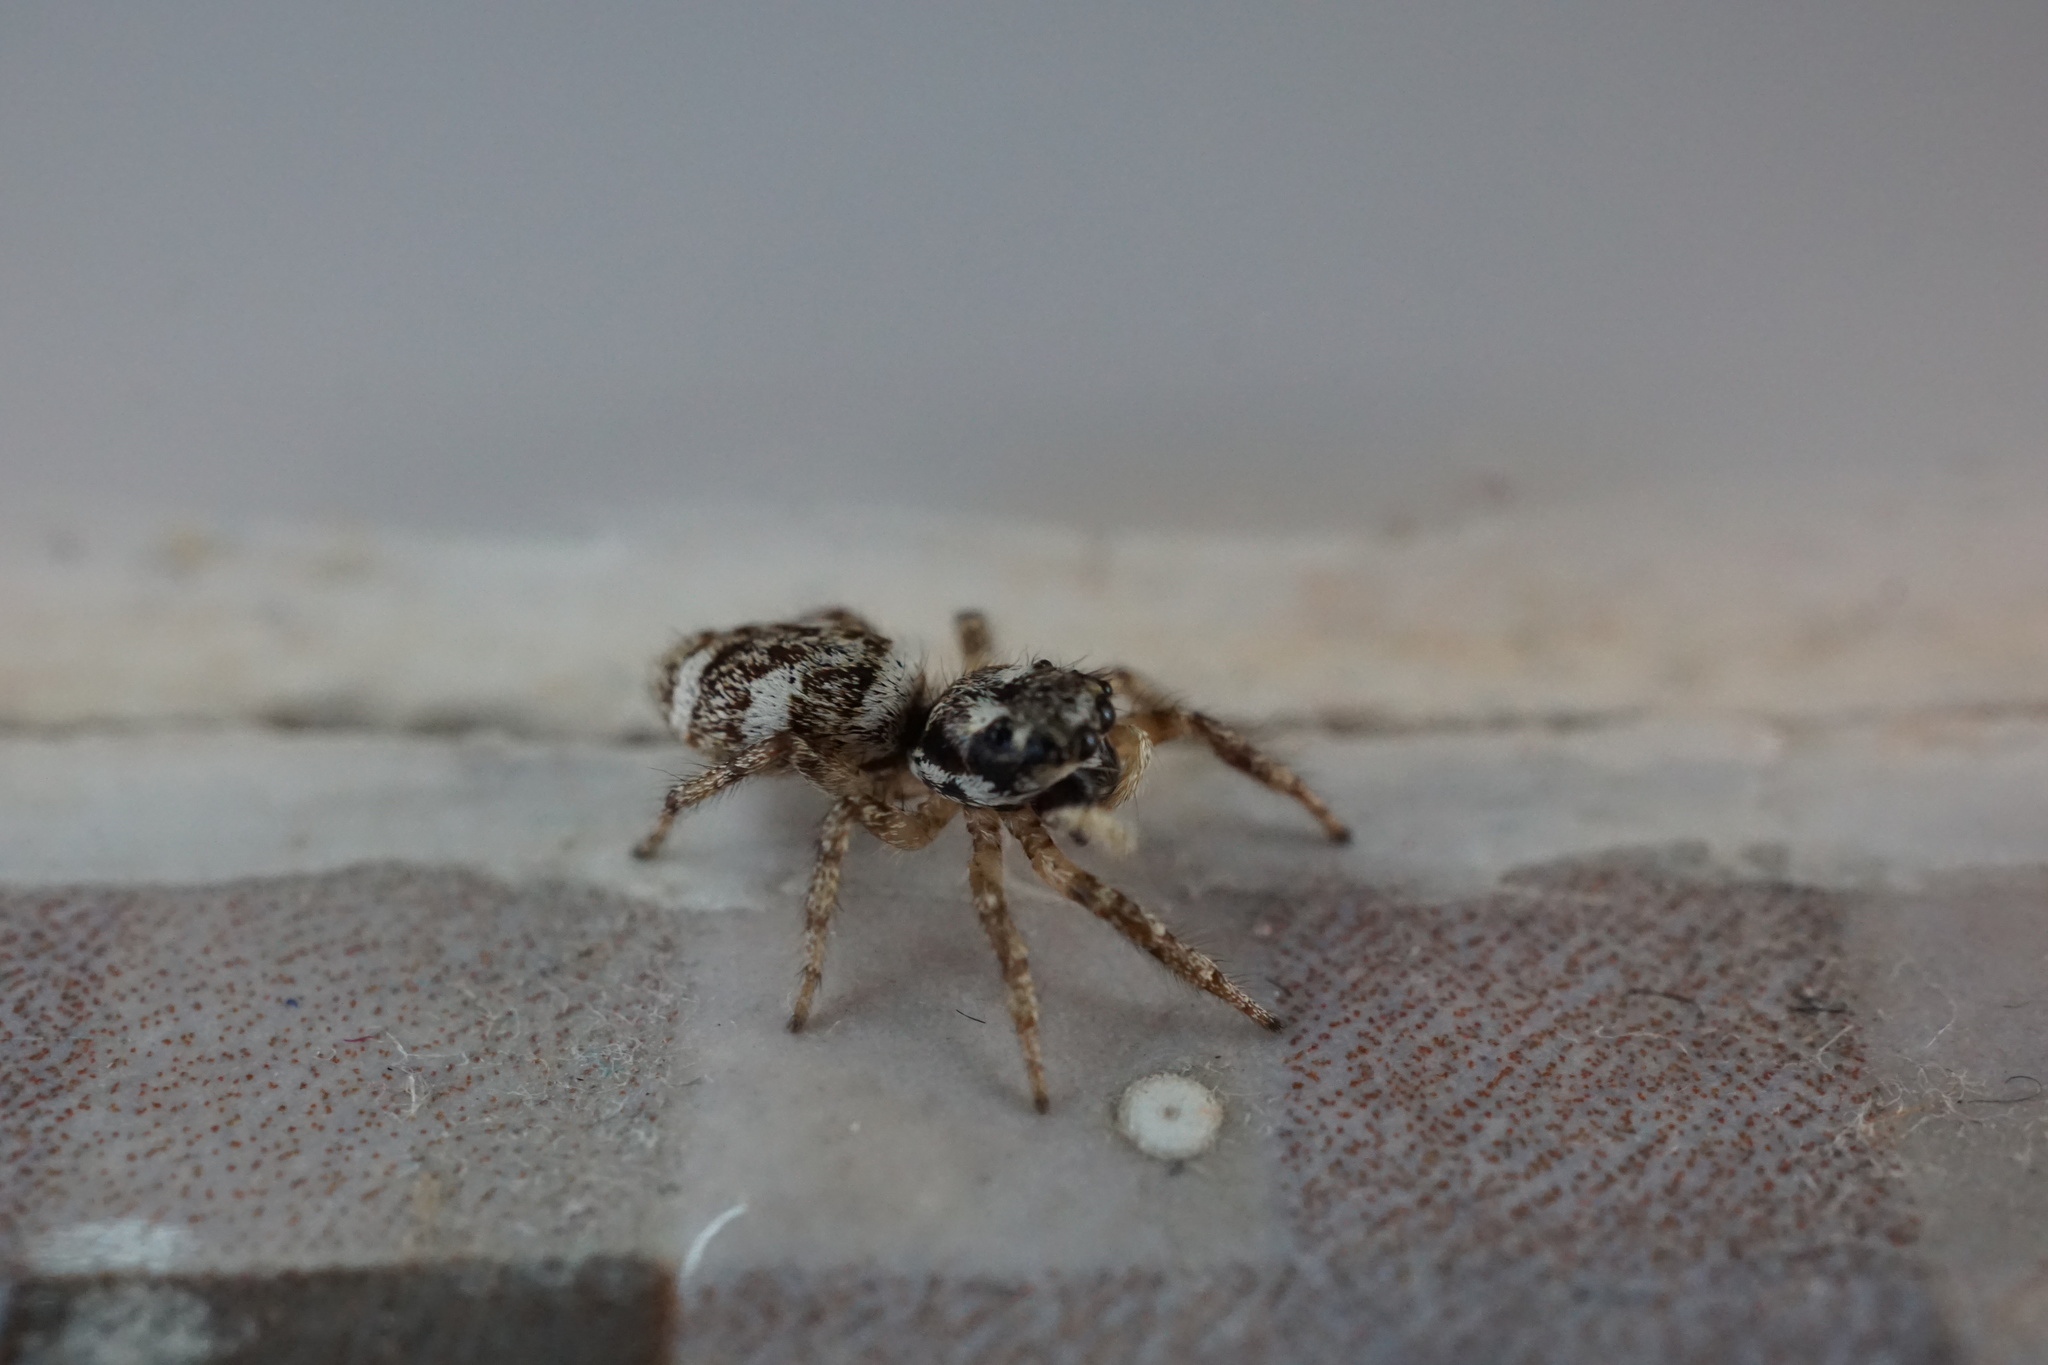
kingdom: Animalia
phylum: Arthropoda
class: Arachnida
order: Araneae
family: Salticidae
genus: Salticus
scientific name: Salticus scenicus
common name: Zebra jumper
